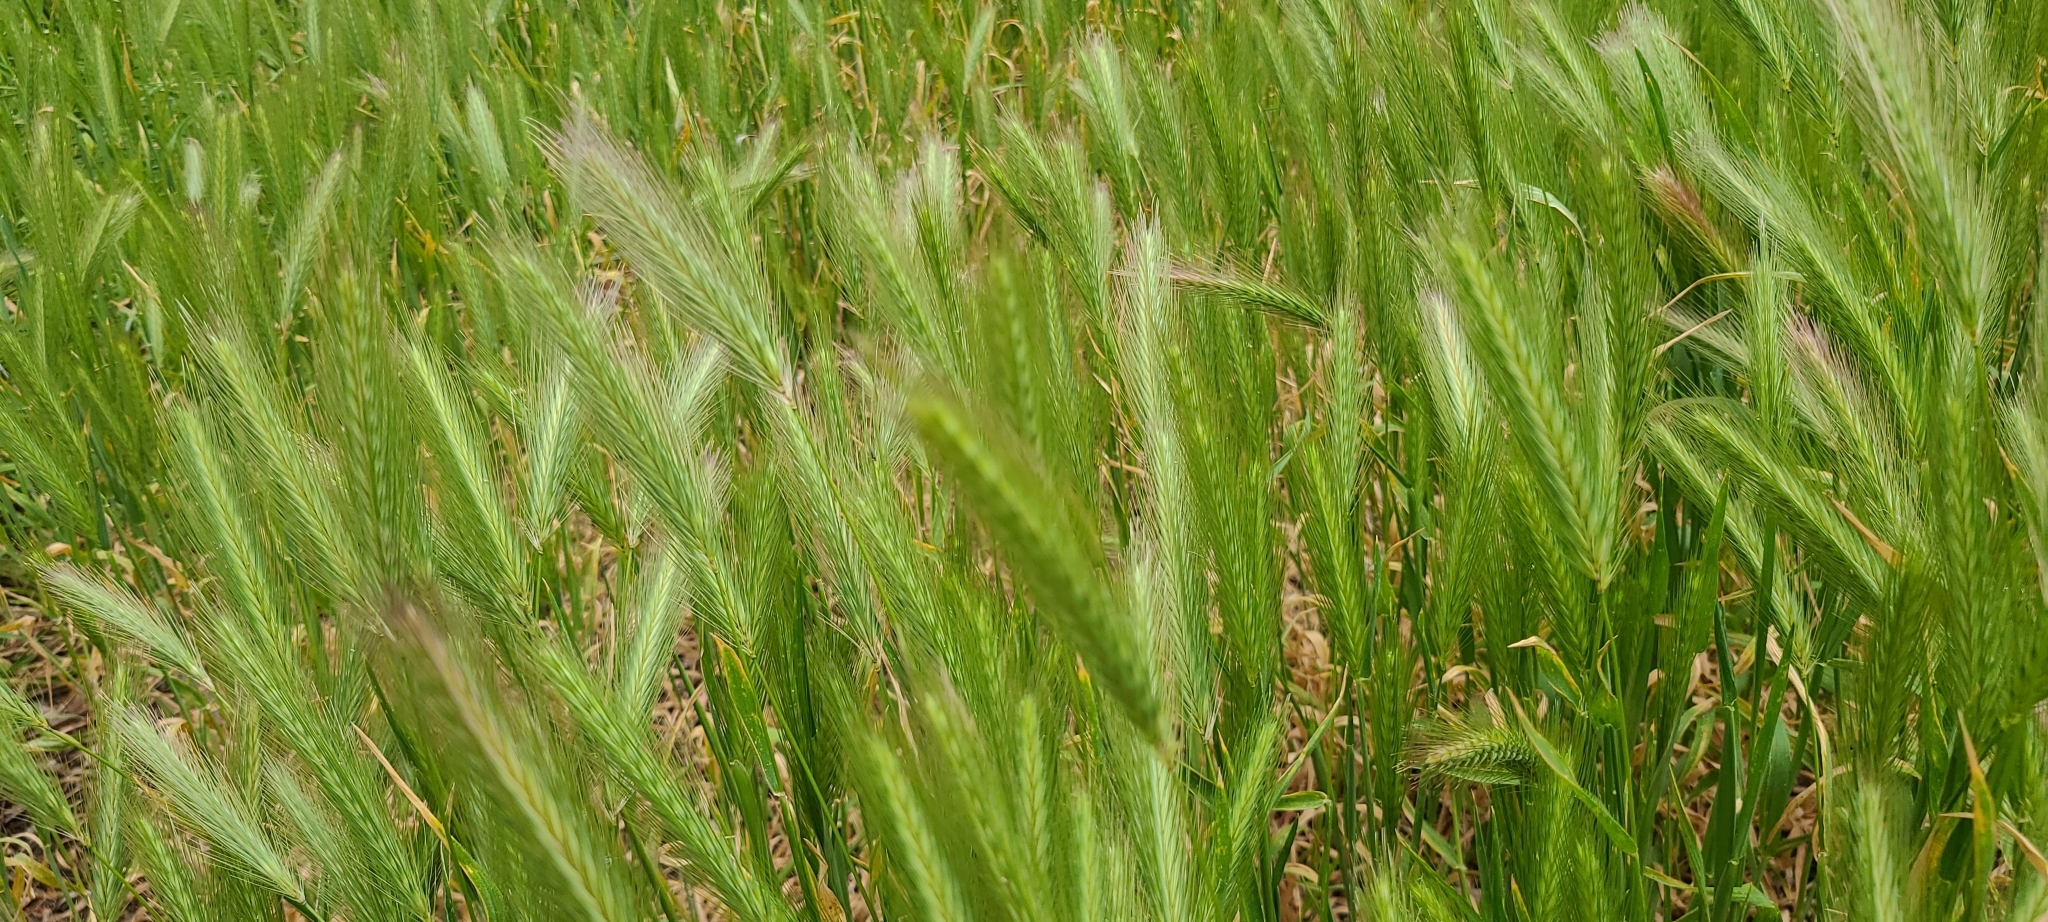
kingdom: Plantae
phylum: Tracheophyta
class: Liliopsida
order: Poales
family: Poaceae
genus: Hordeum
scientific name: Hordeum vulgare
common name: Common barley
